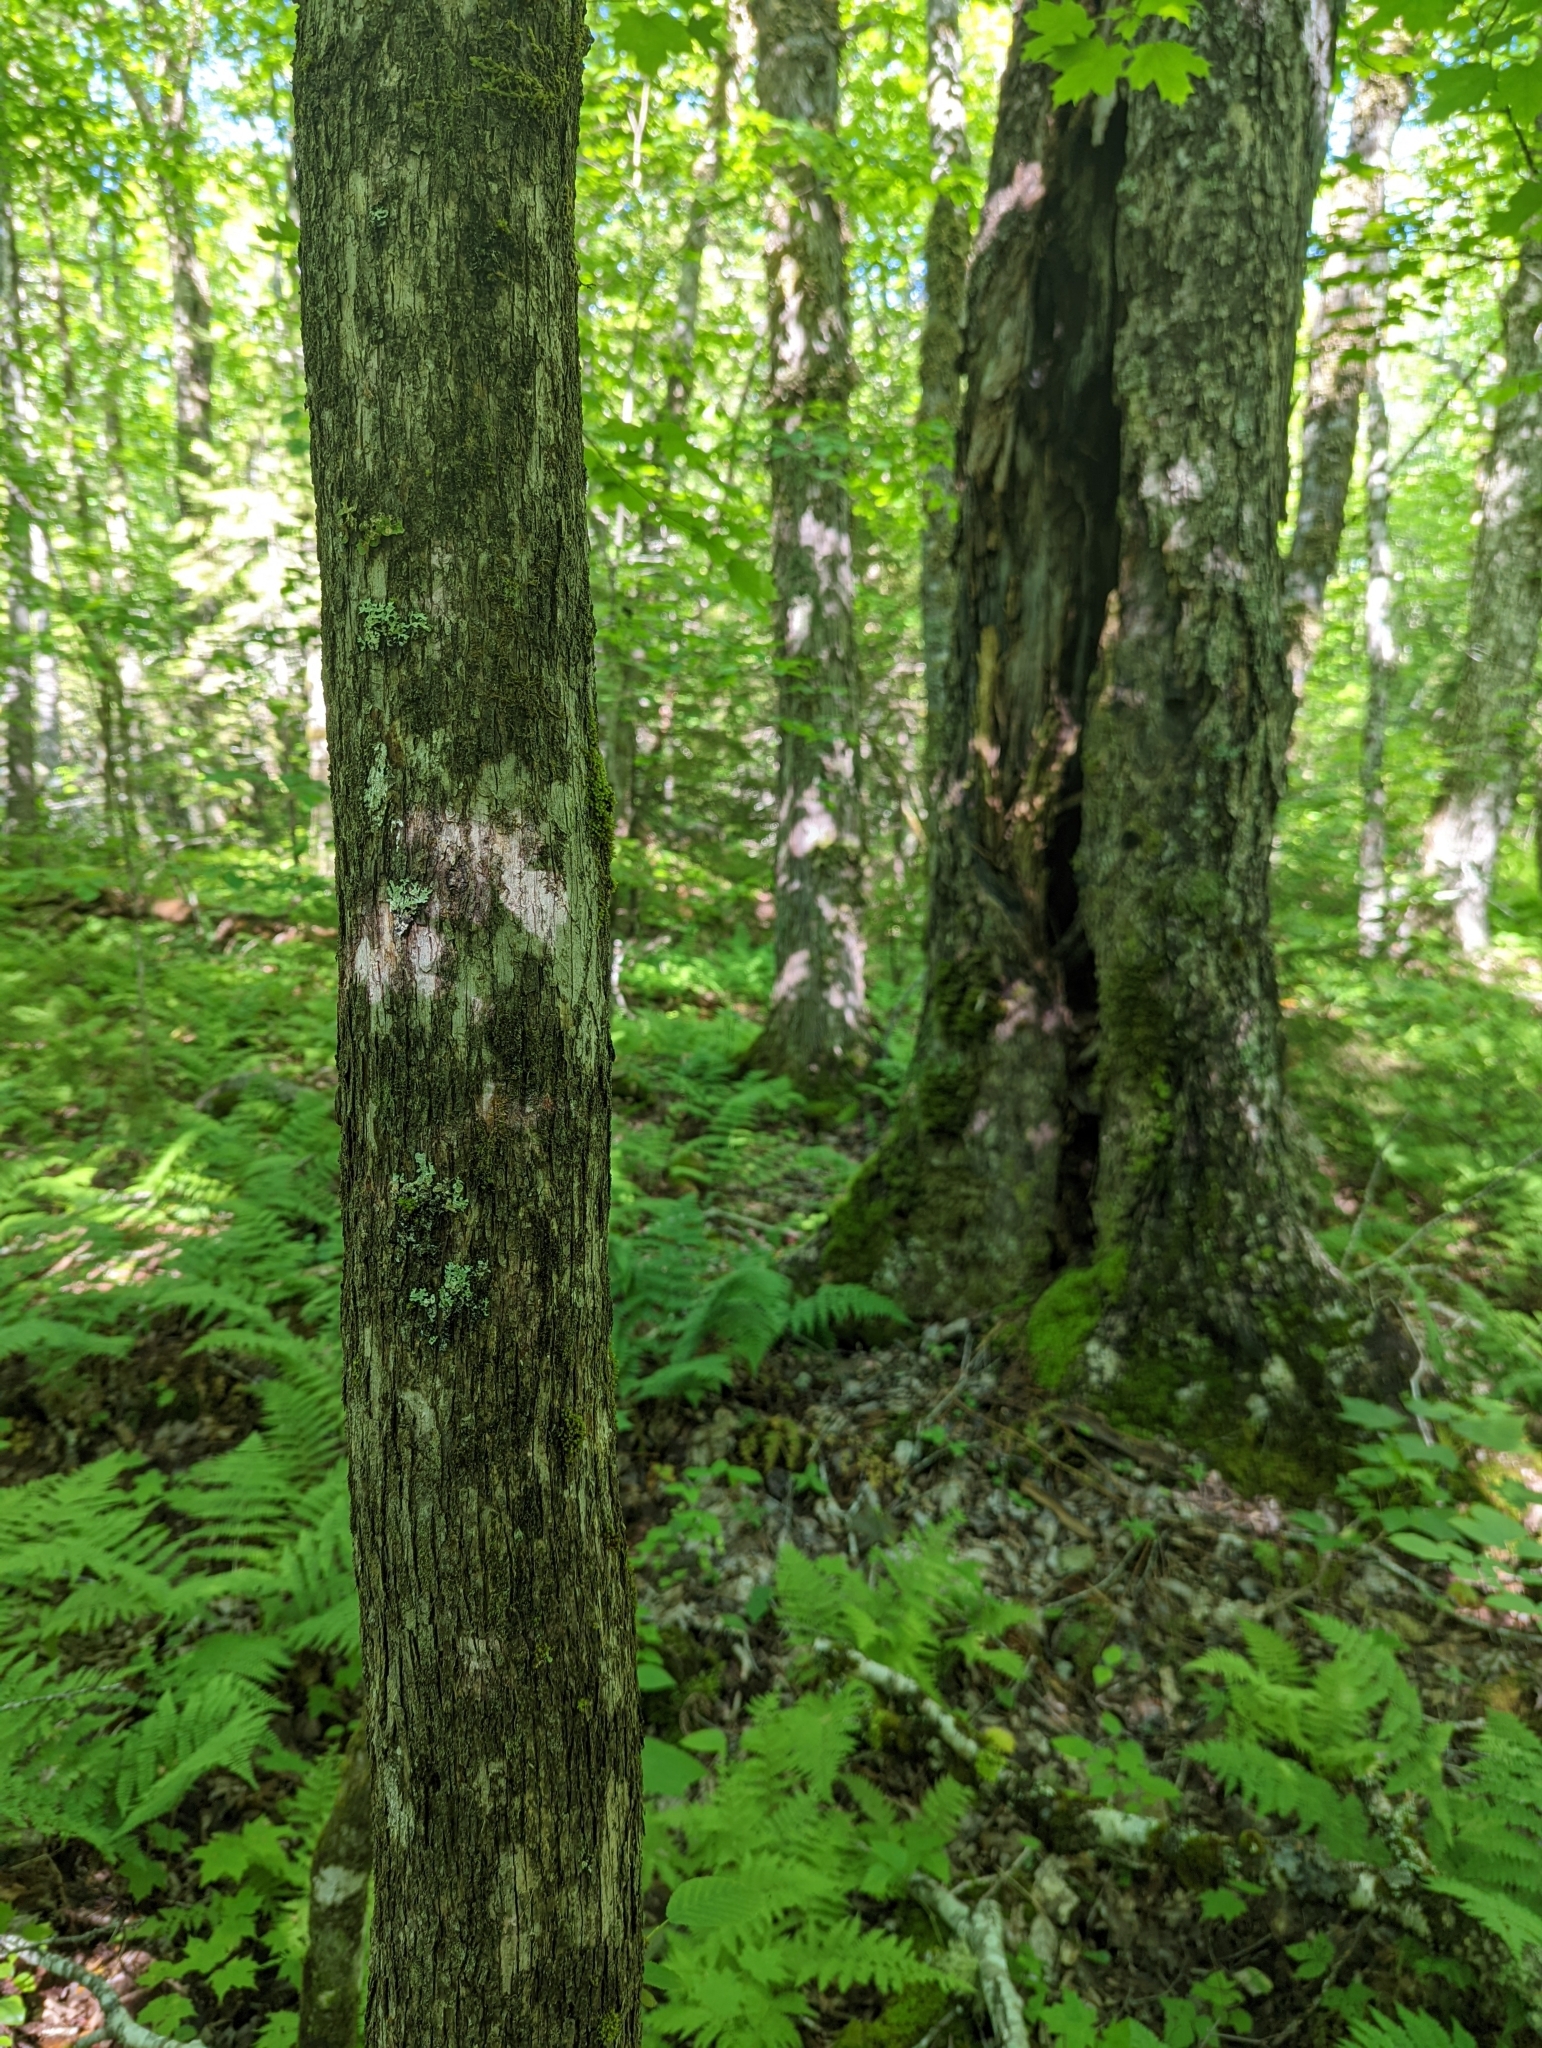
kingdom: Plantae
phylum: Tracheophyta
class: Magnoliopsida
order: Fagales
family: Betulaceae
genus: Ostrya
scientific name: Ostrya virginiana
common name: Ironwood
